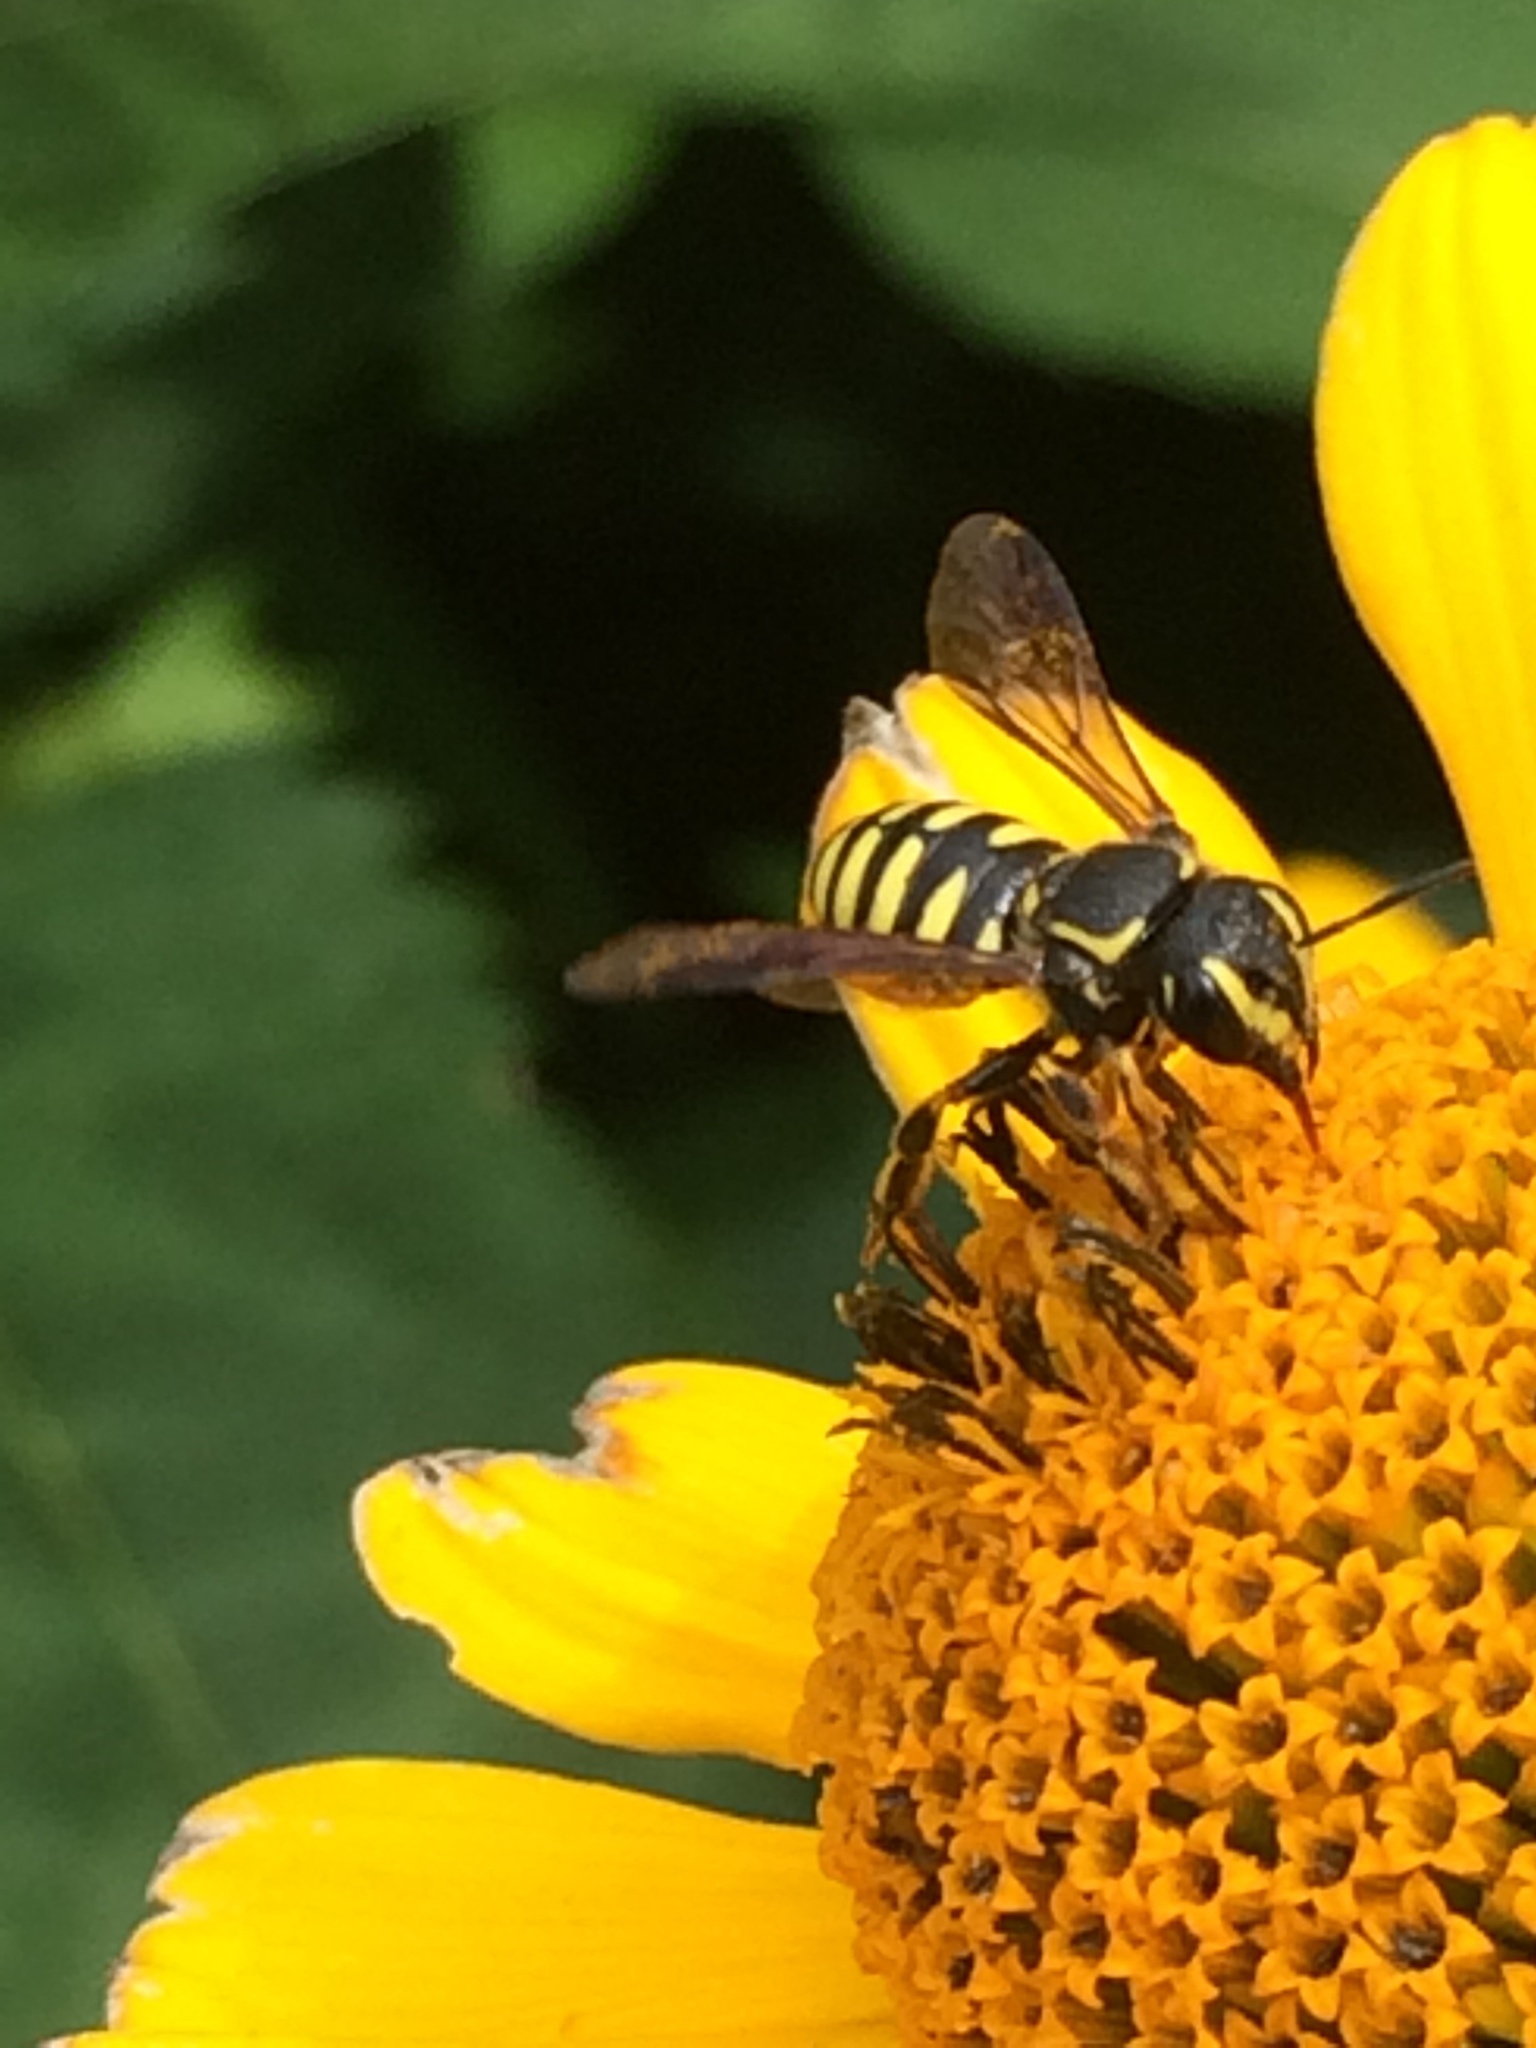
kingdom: Animalia
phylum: Arthropoda
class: Insecta
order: Hymenoptera
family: Megachilidae
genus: Paranthidium
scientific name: Paranthidium jugatorium
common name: Sunflower burrowing-resin bee
